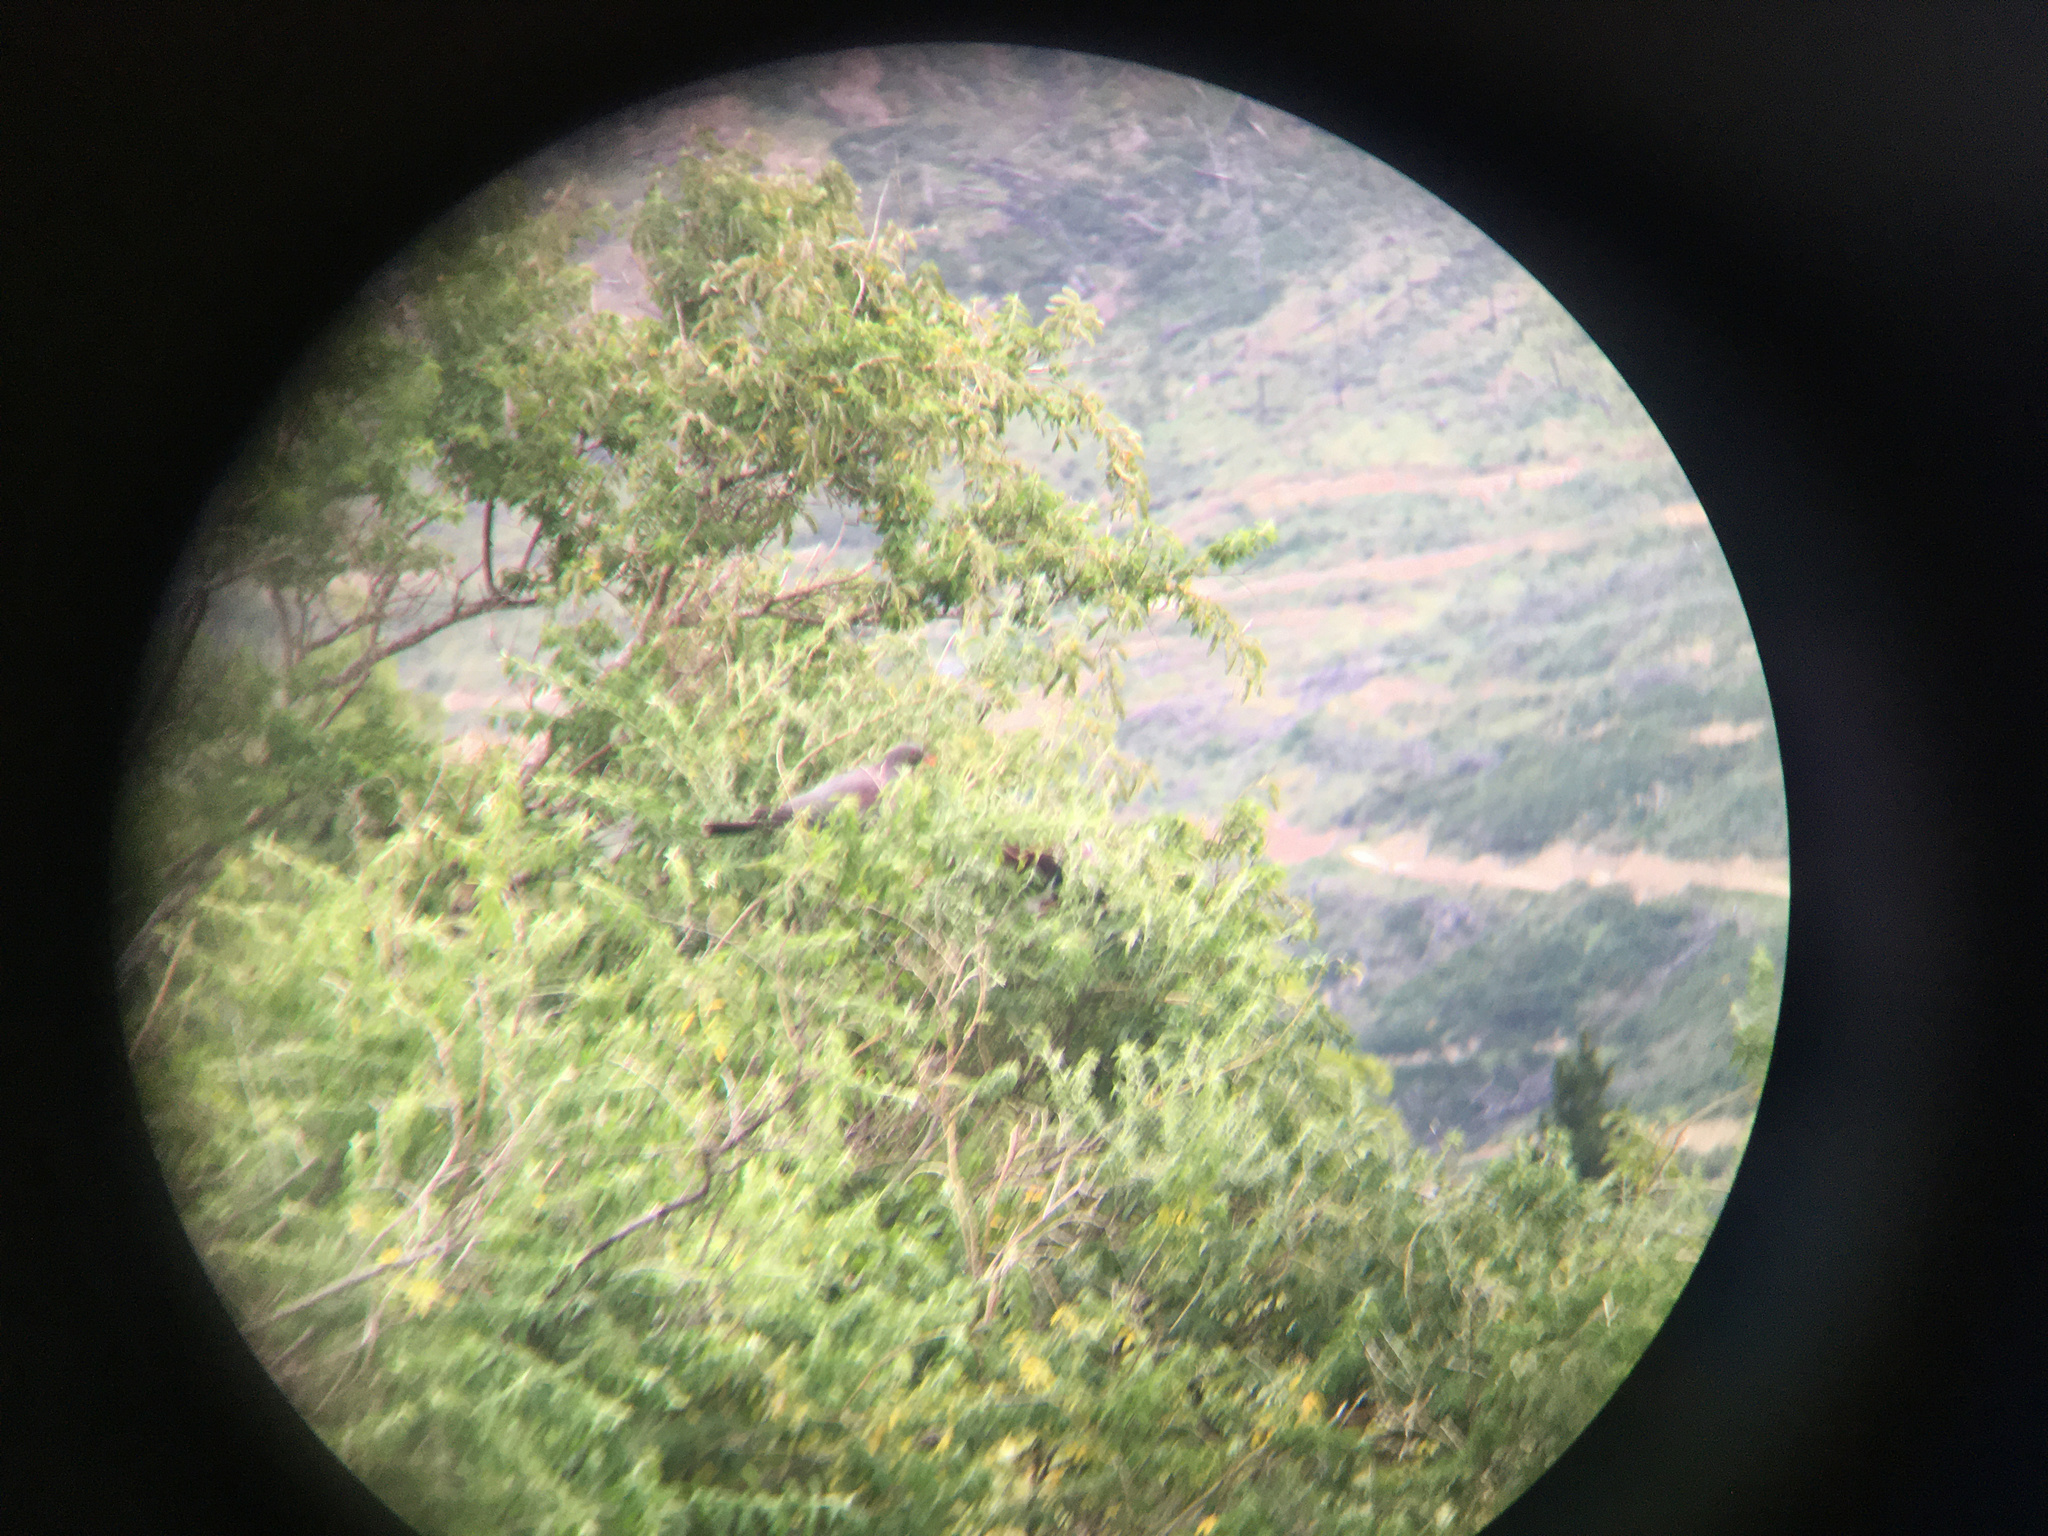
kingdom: Animalia
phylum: Chordata
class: Aves
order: Columbiformes
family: Columbidae
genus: Hemiphaga
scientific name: Hemiphaga novaeseelandiae
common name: New zealand pigeon
